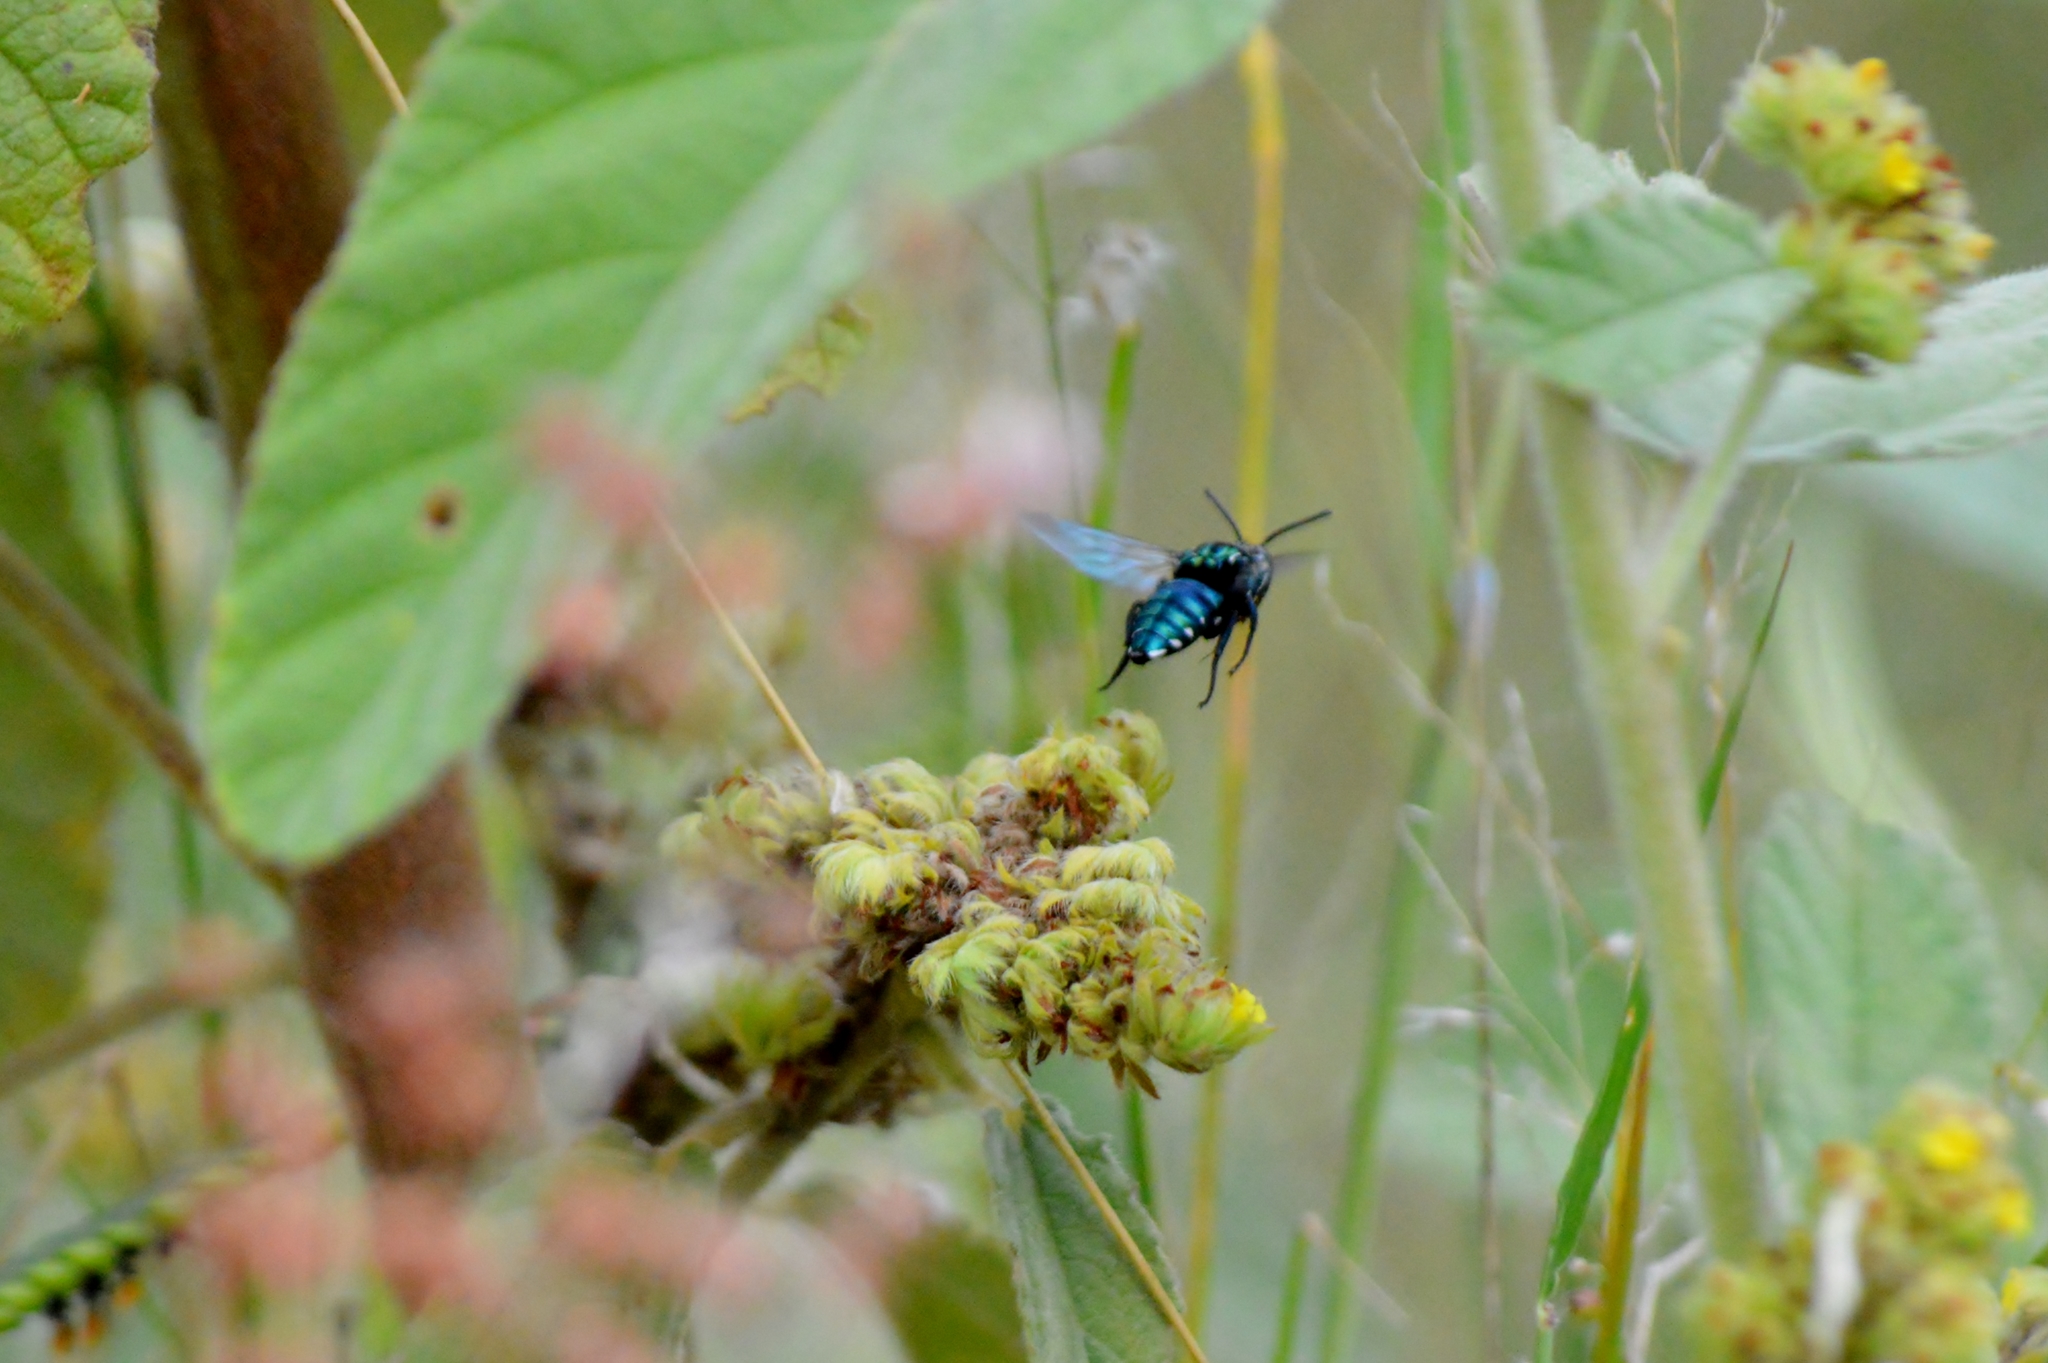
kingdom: Animalia
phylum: Arthropoda
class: Insecta
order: Hymenoptera
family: Apidae
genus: Thalestria
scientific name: Thalestria spinosa
